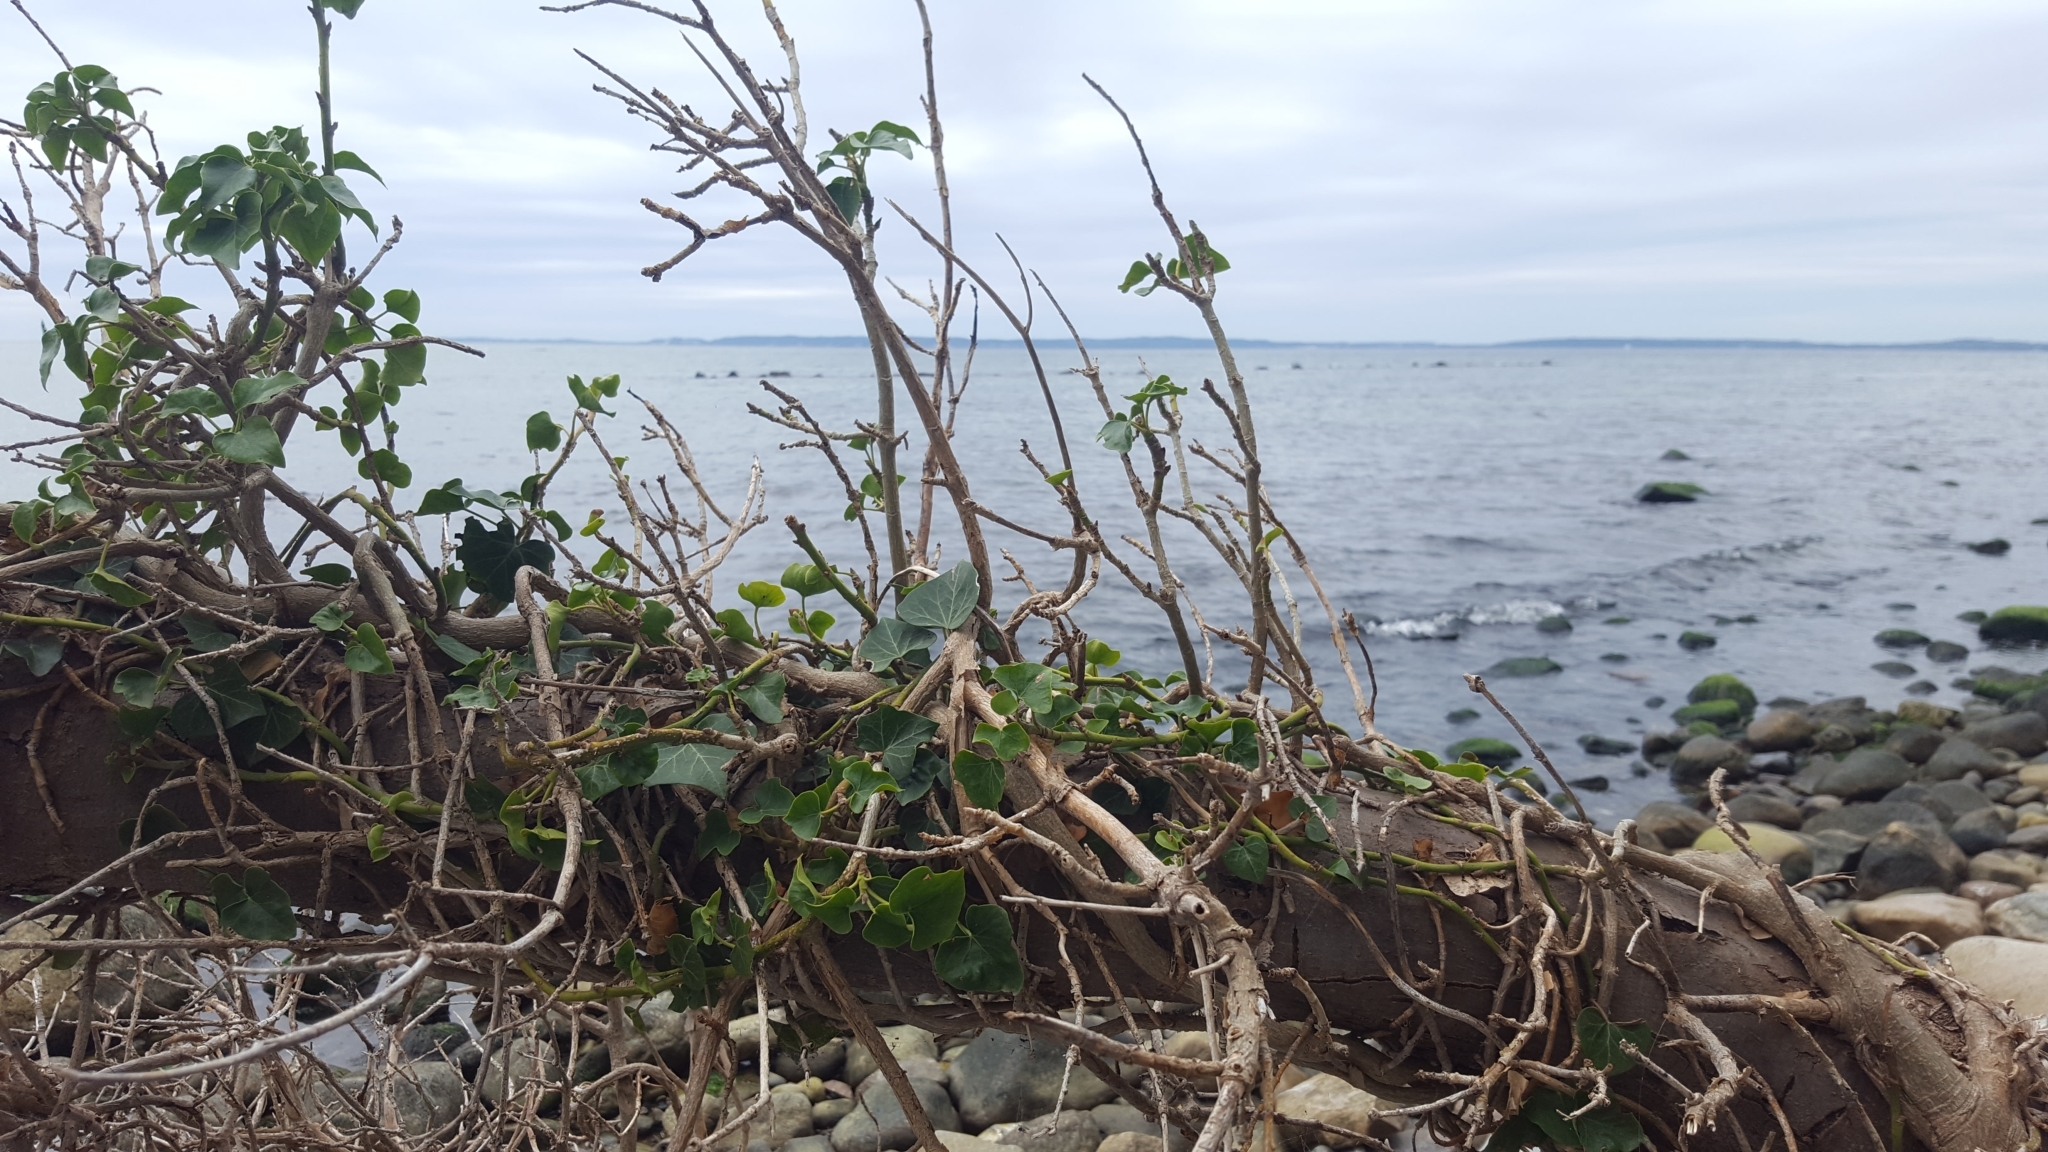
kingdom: Plantae
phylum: Tracheophyta
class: Magnoliopsida
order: Apiales
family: Araliaceae
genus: Hedera
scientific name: Hedera helix
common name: Ivy
